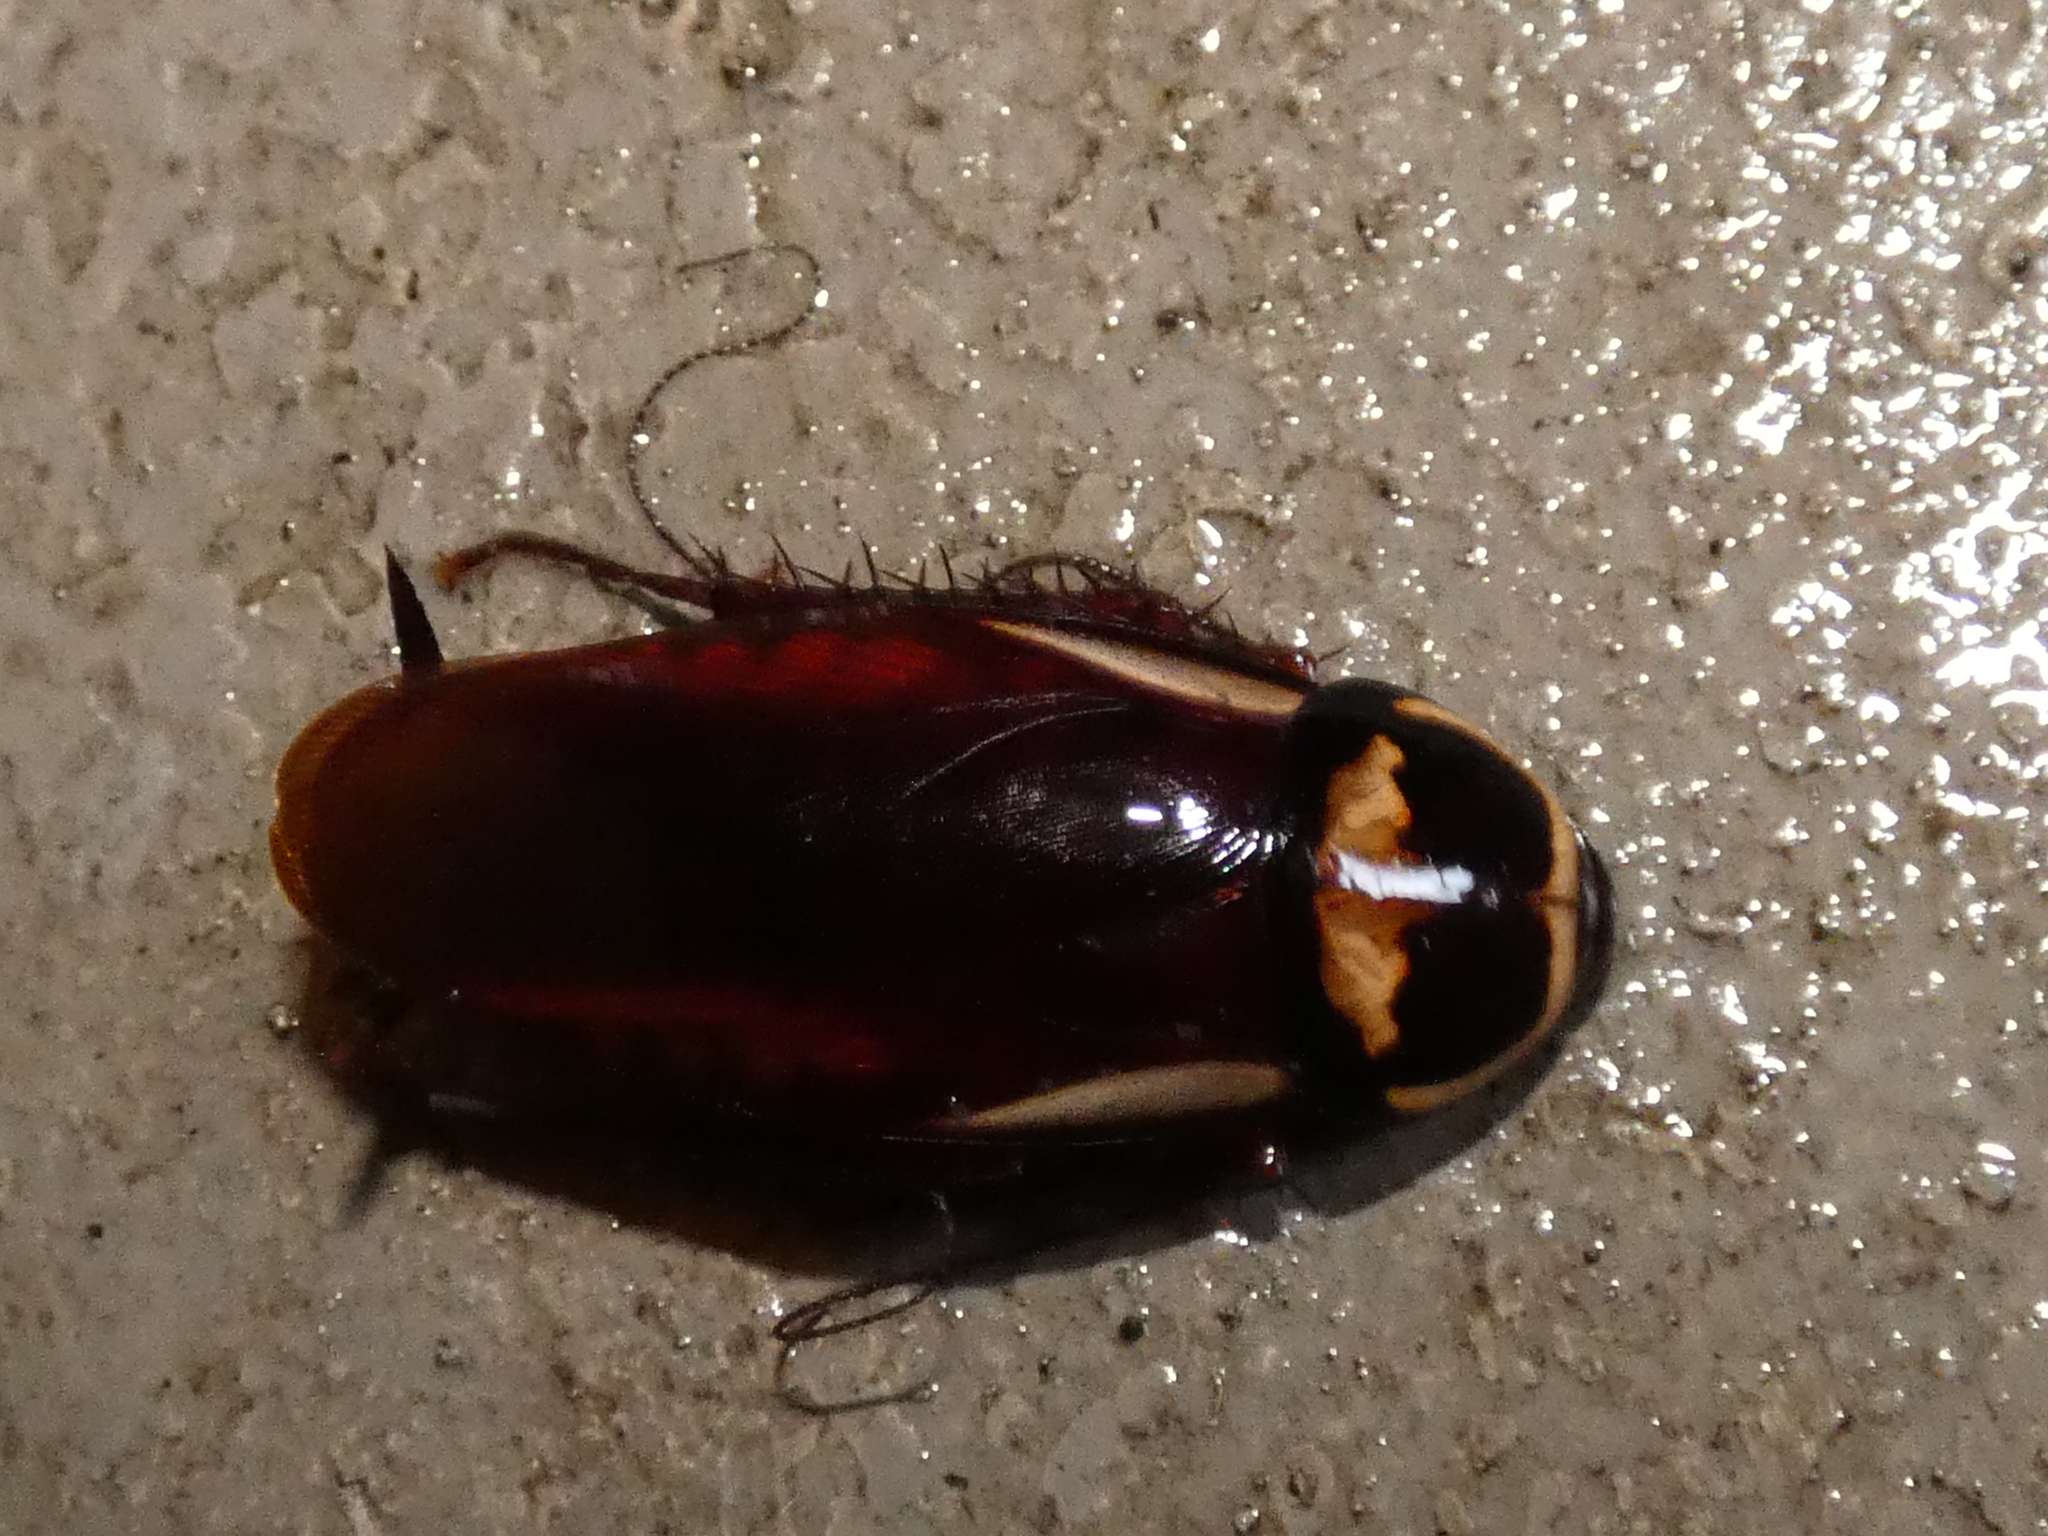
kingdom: Animalia
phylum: Arthropoda
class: Insecta
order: Blattodea
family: Blattidae
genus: Periplaneta
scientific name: Periplaneta australasiae
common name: Australian cockroach
